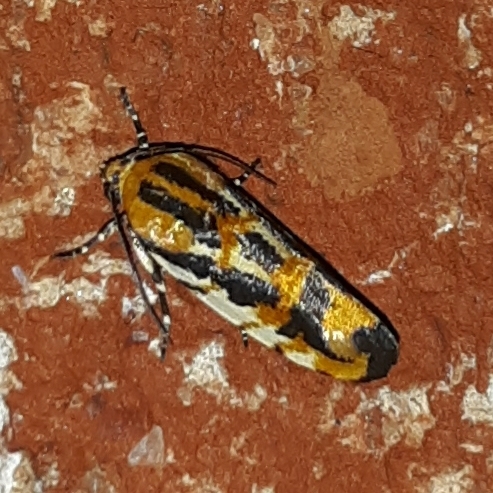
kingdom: Animalia
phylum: Arthropoda
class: Insecta
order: Lepidoptera
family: Noctuidae
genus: Acontia
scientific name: Acontia leo
